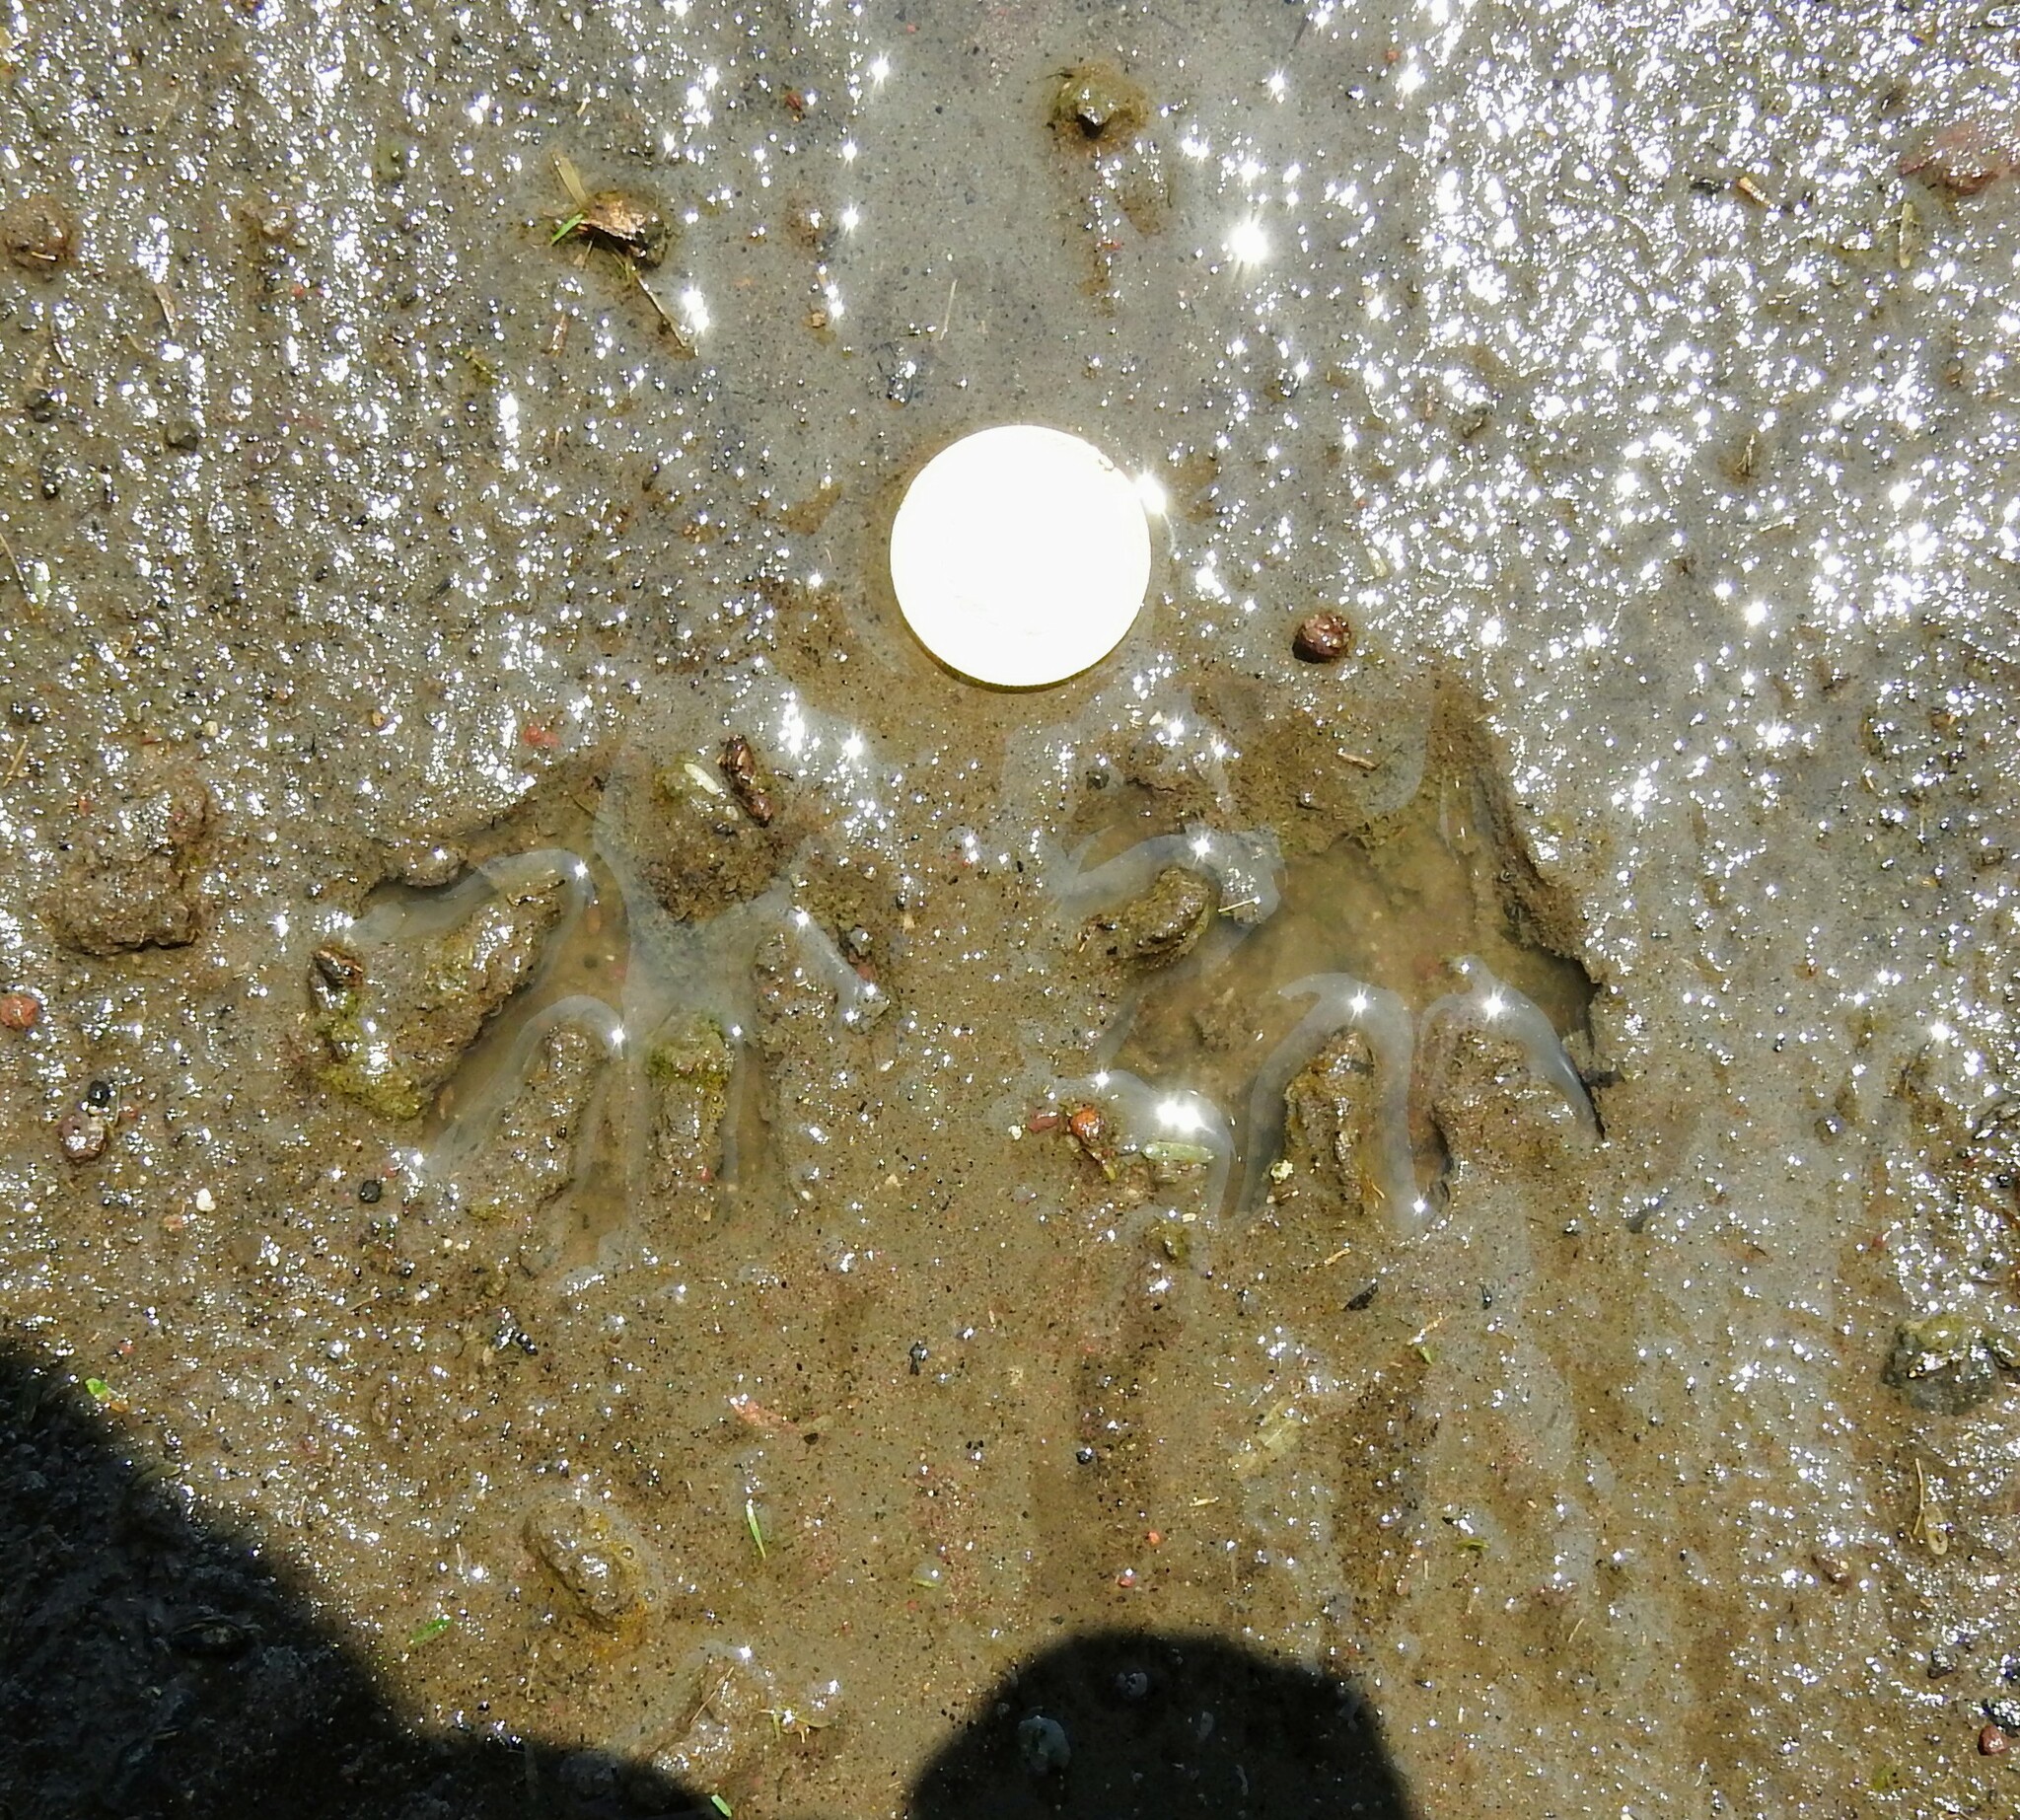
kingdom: Animalia
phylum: Chordata
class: Mammalia
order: Carnivora
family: Procyonidae
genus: Procyon
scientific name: Procyon lotor
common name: Raccoon
